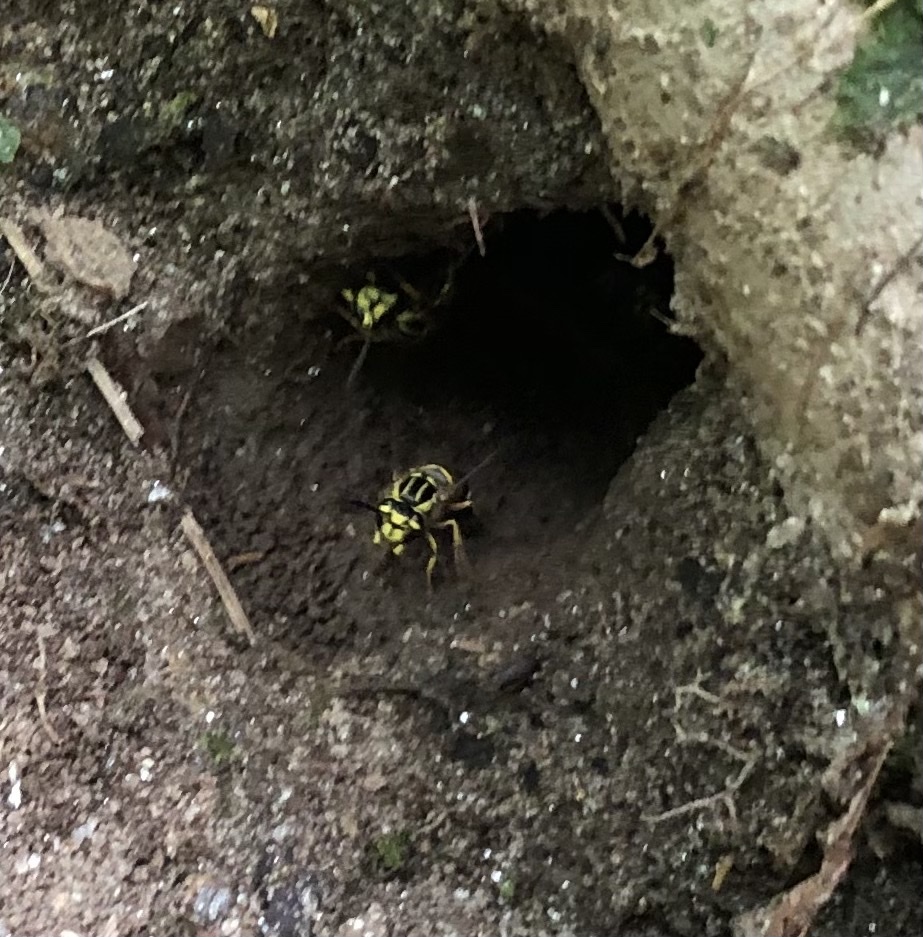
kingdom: Animalia
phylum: Arthropoda
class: Insecta
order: Hymenoptera
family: Vespidae
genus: Vespula
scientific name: Vespula squamosa
